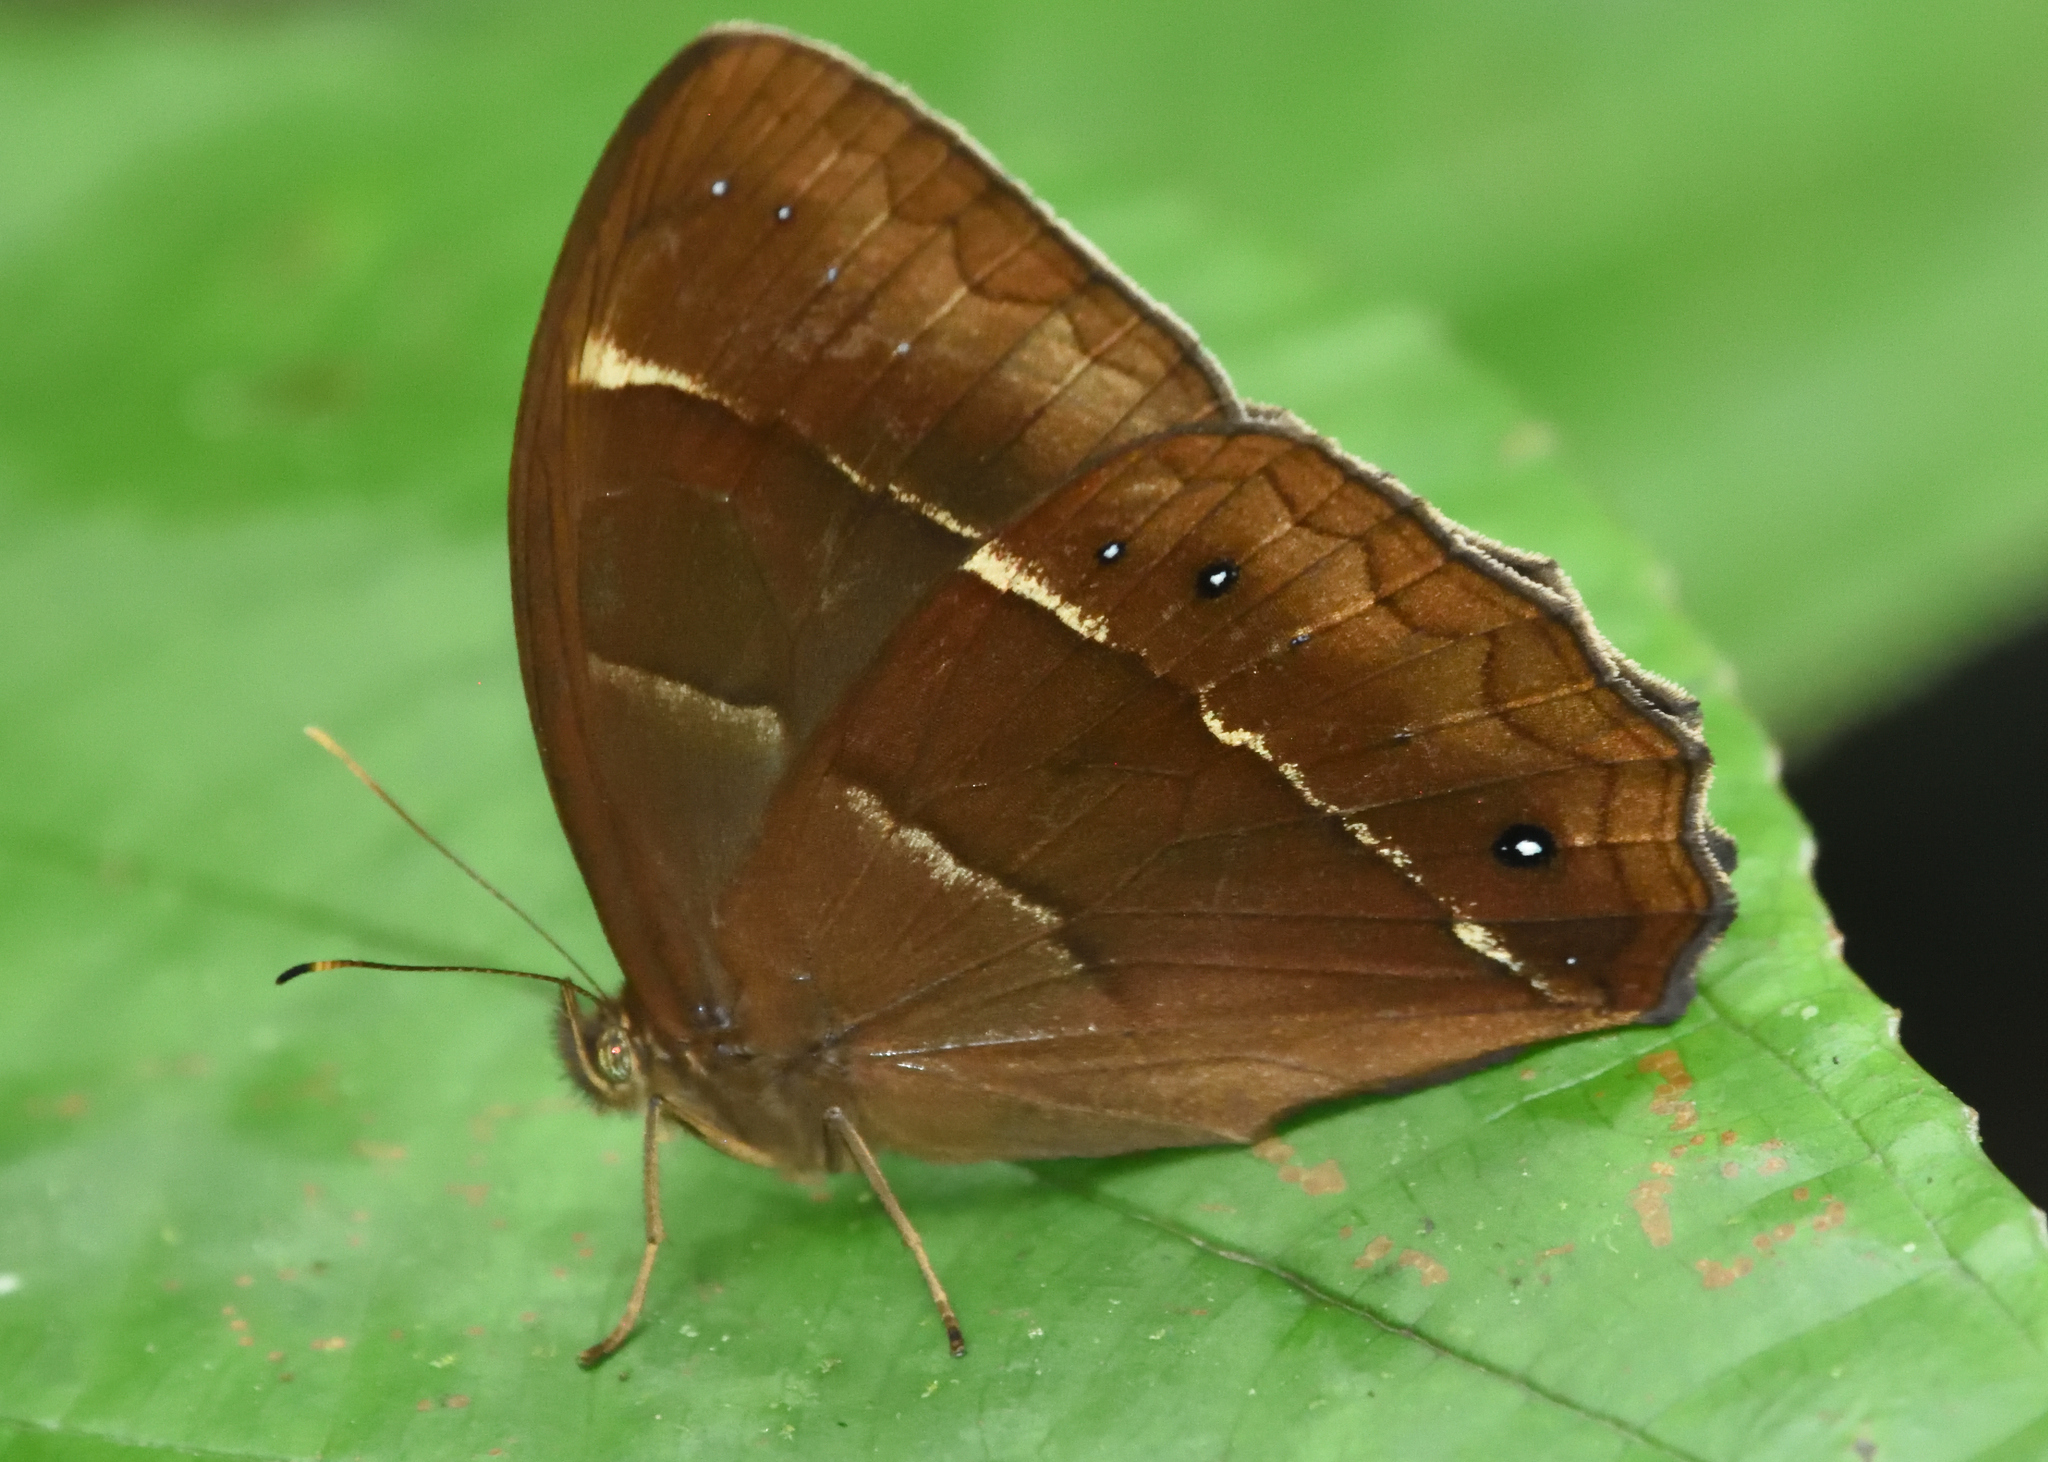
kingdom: Animalia
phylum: Arthropoda
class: Insecta
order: Lepidoptera
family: Nymphalidae
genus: Parataygetis
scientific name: Parataygetis lineata
